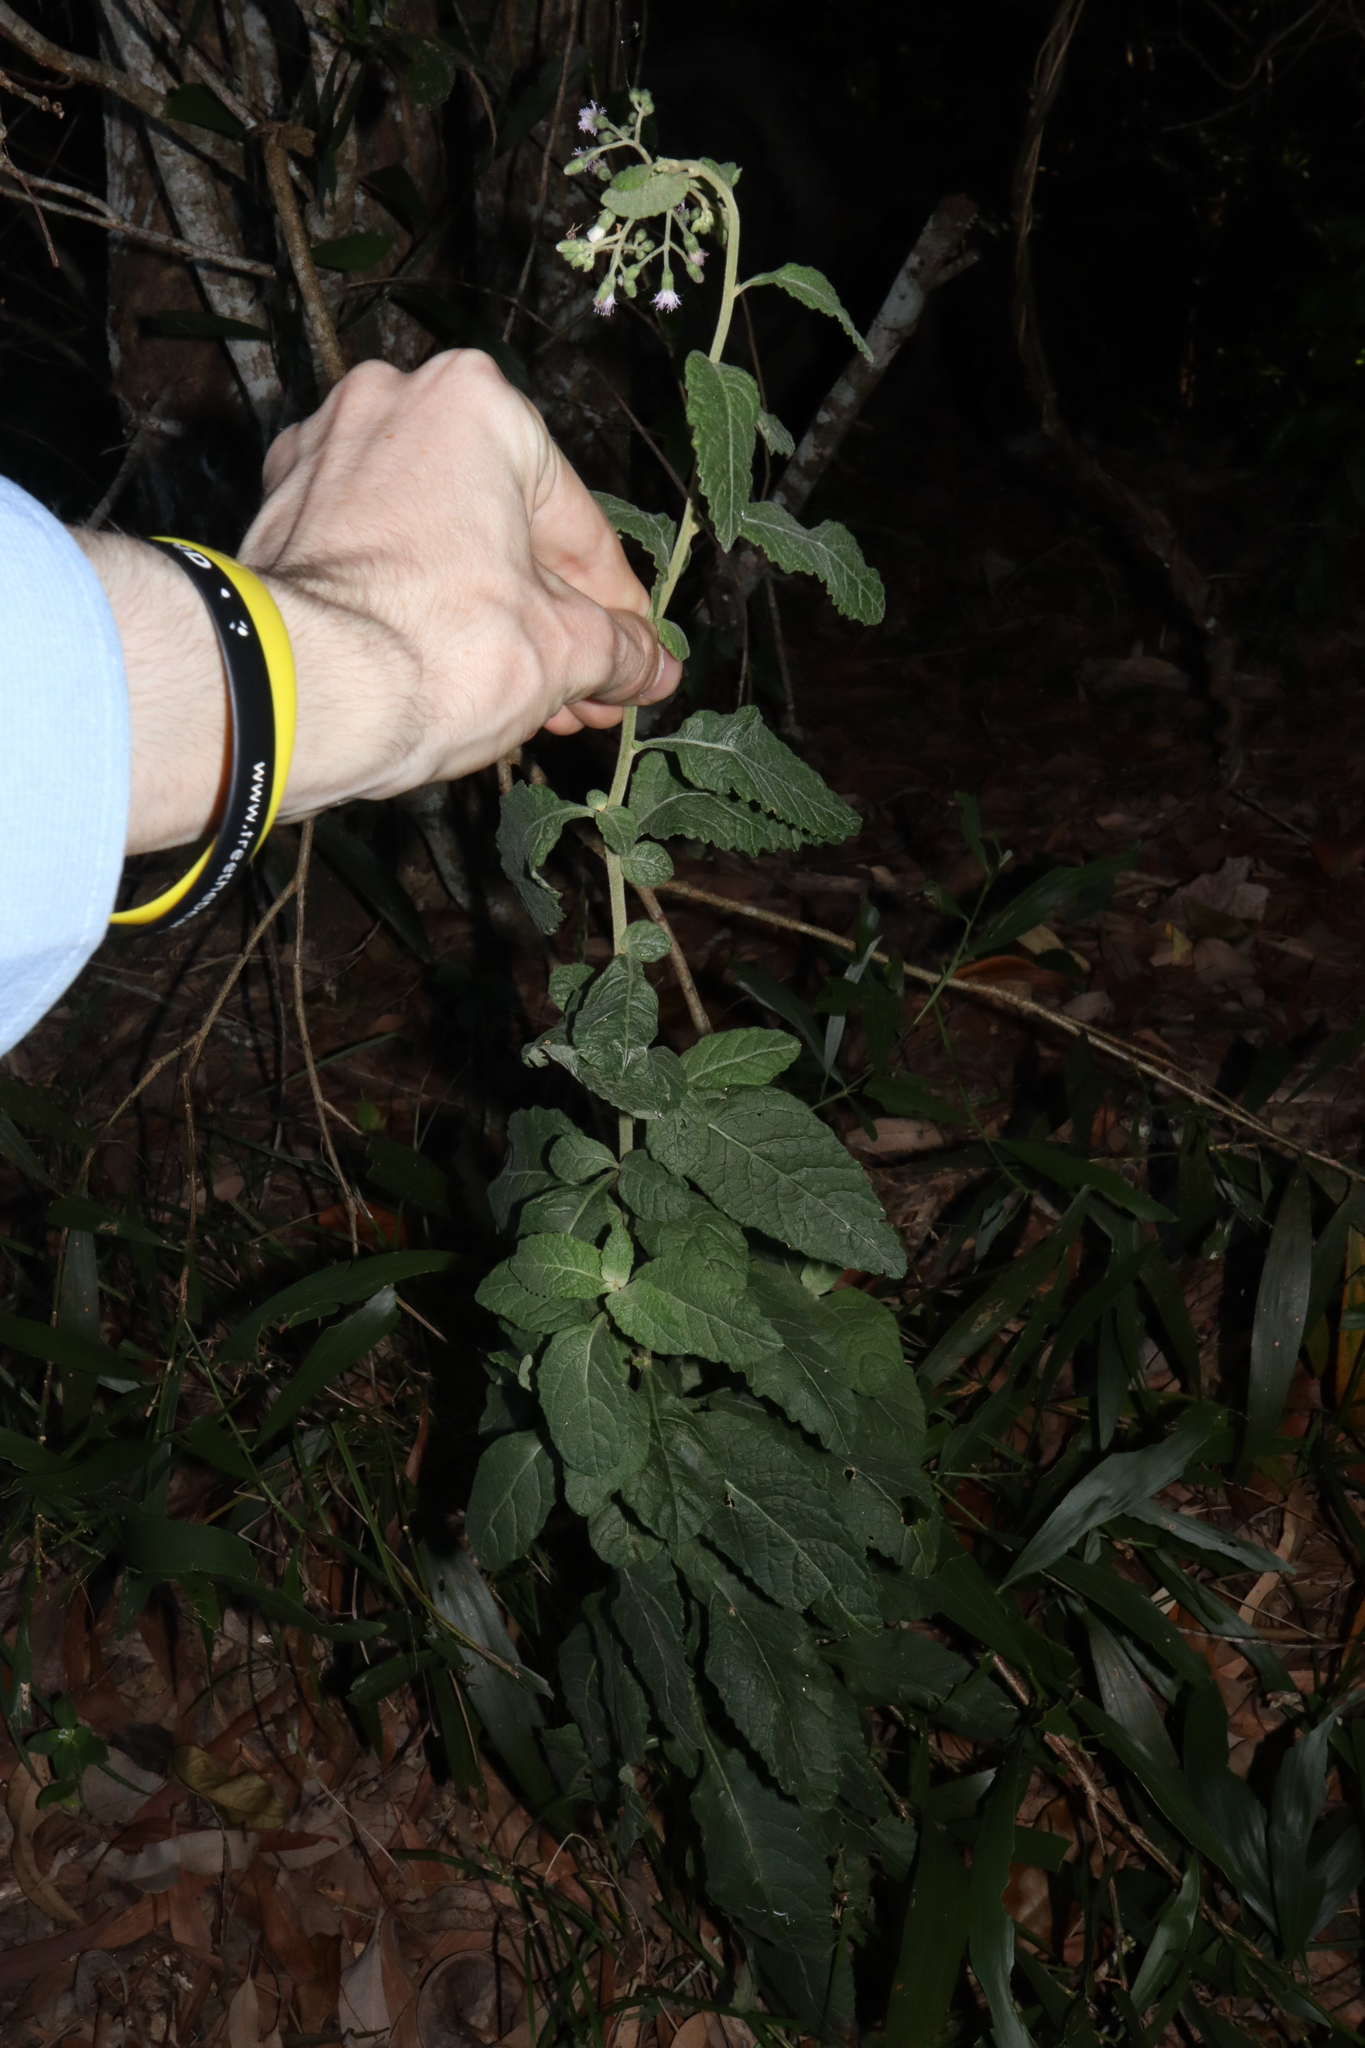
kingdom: Plantae
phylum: Tracheophyta
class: Magnoliopsida
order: Asterales
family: Asteraceae
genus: Cyanthillium
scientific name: Cyanthillium cinereum
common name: Little ironweed
